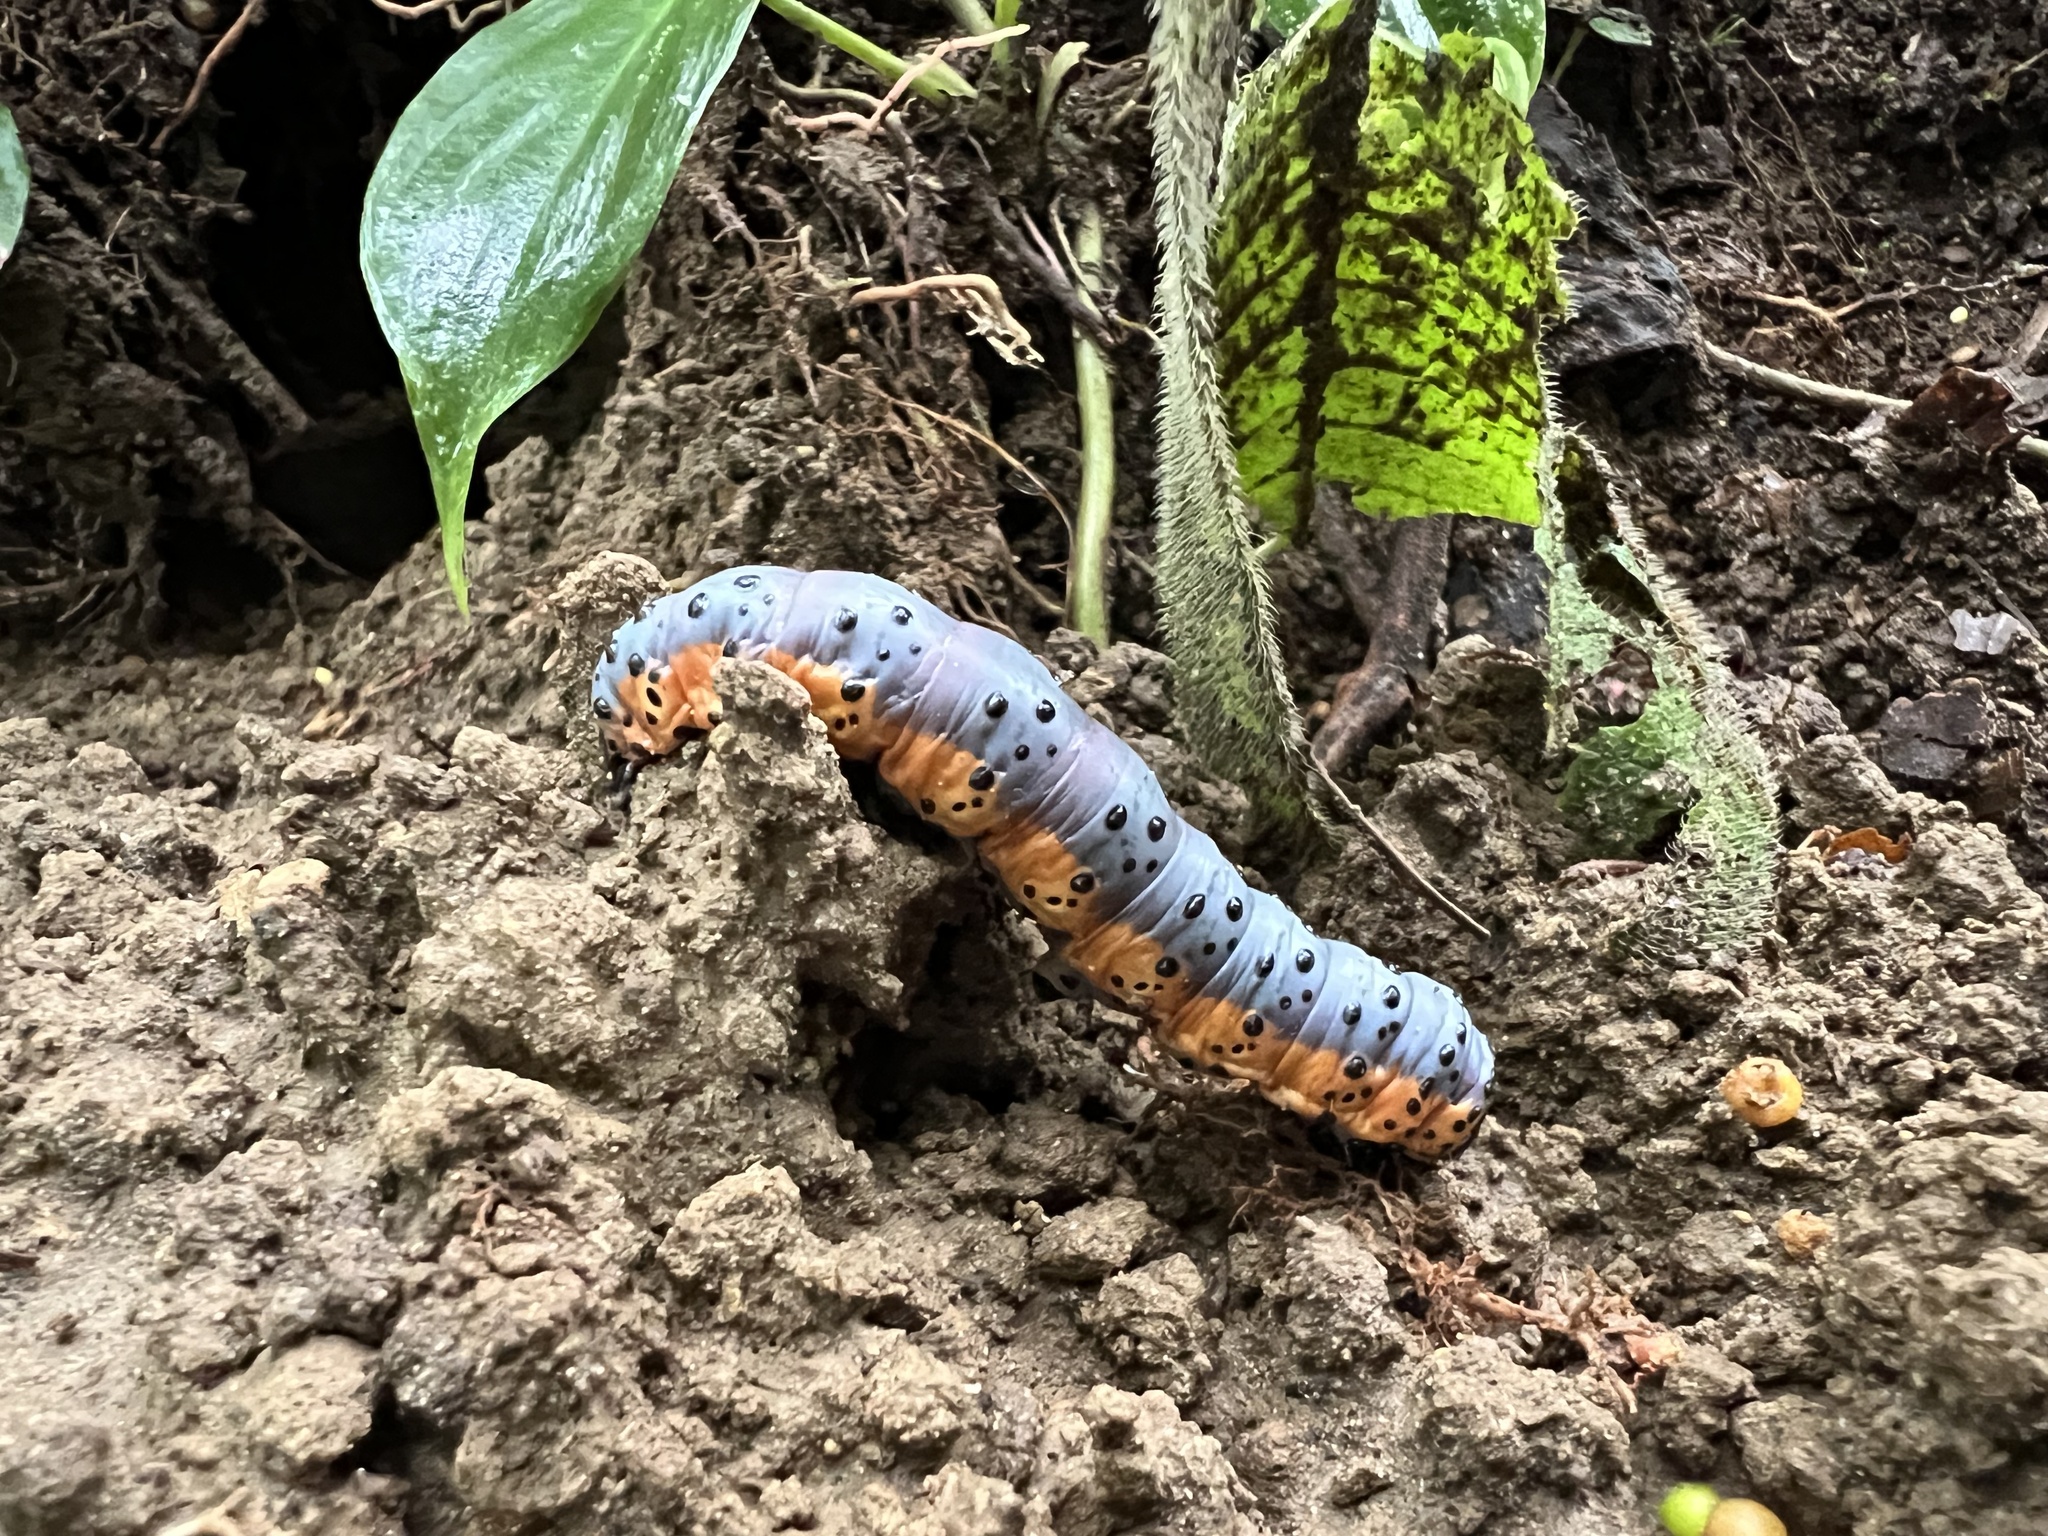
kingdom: Animalia
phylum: Arthropoda
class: Insecta
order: Lepidoptera
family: Notodontidae
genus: Lobeza
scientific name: Lobeza medina
